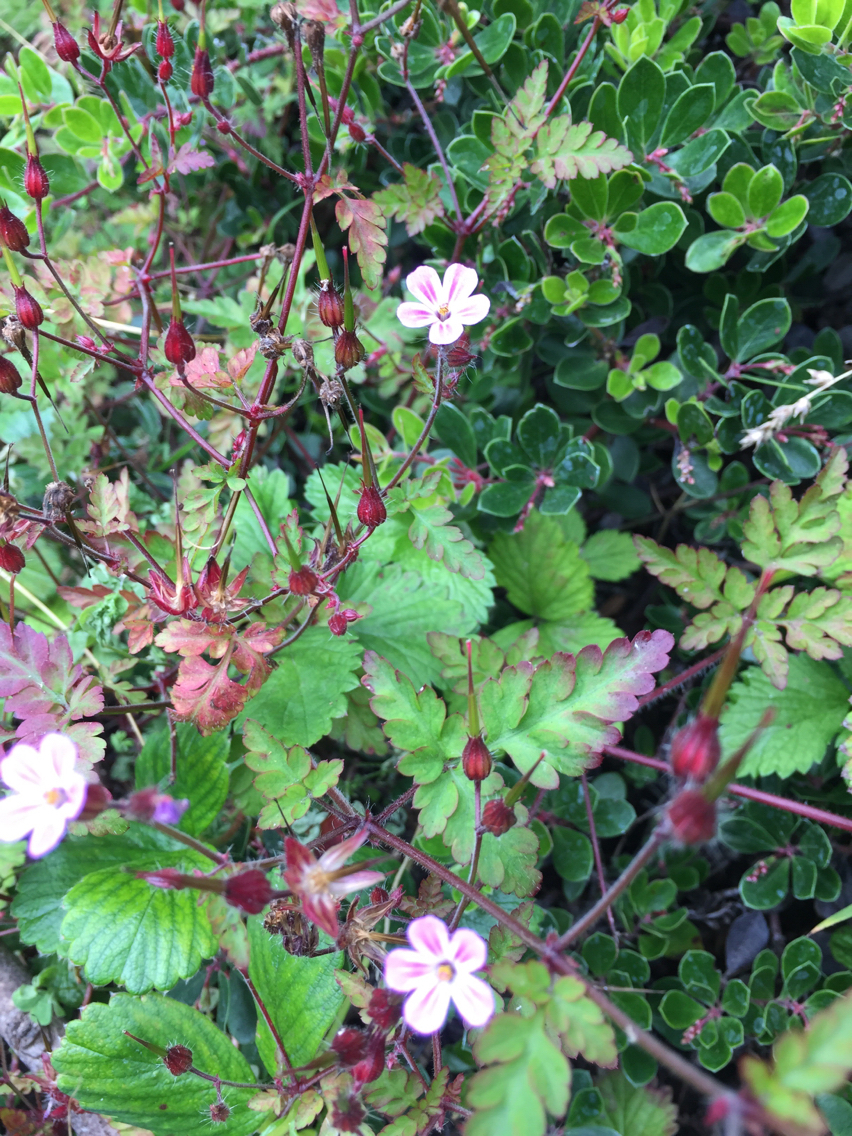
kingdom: Plantae
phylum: Tracheophyta
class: Magnoliopsida
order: Geraniales
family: Geraniaceae
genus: Geranium
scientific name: Geranium robertianum
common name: Herb-robert
